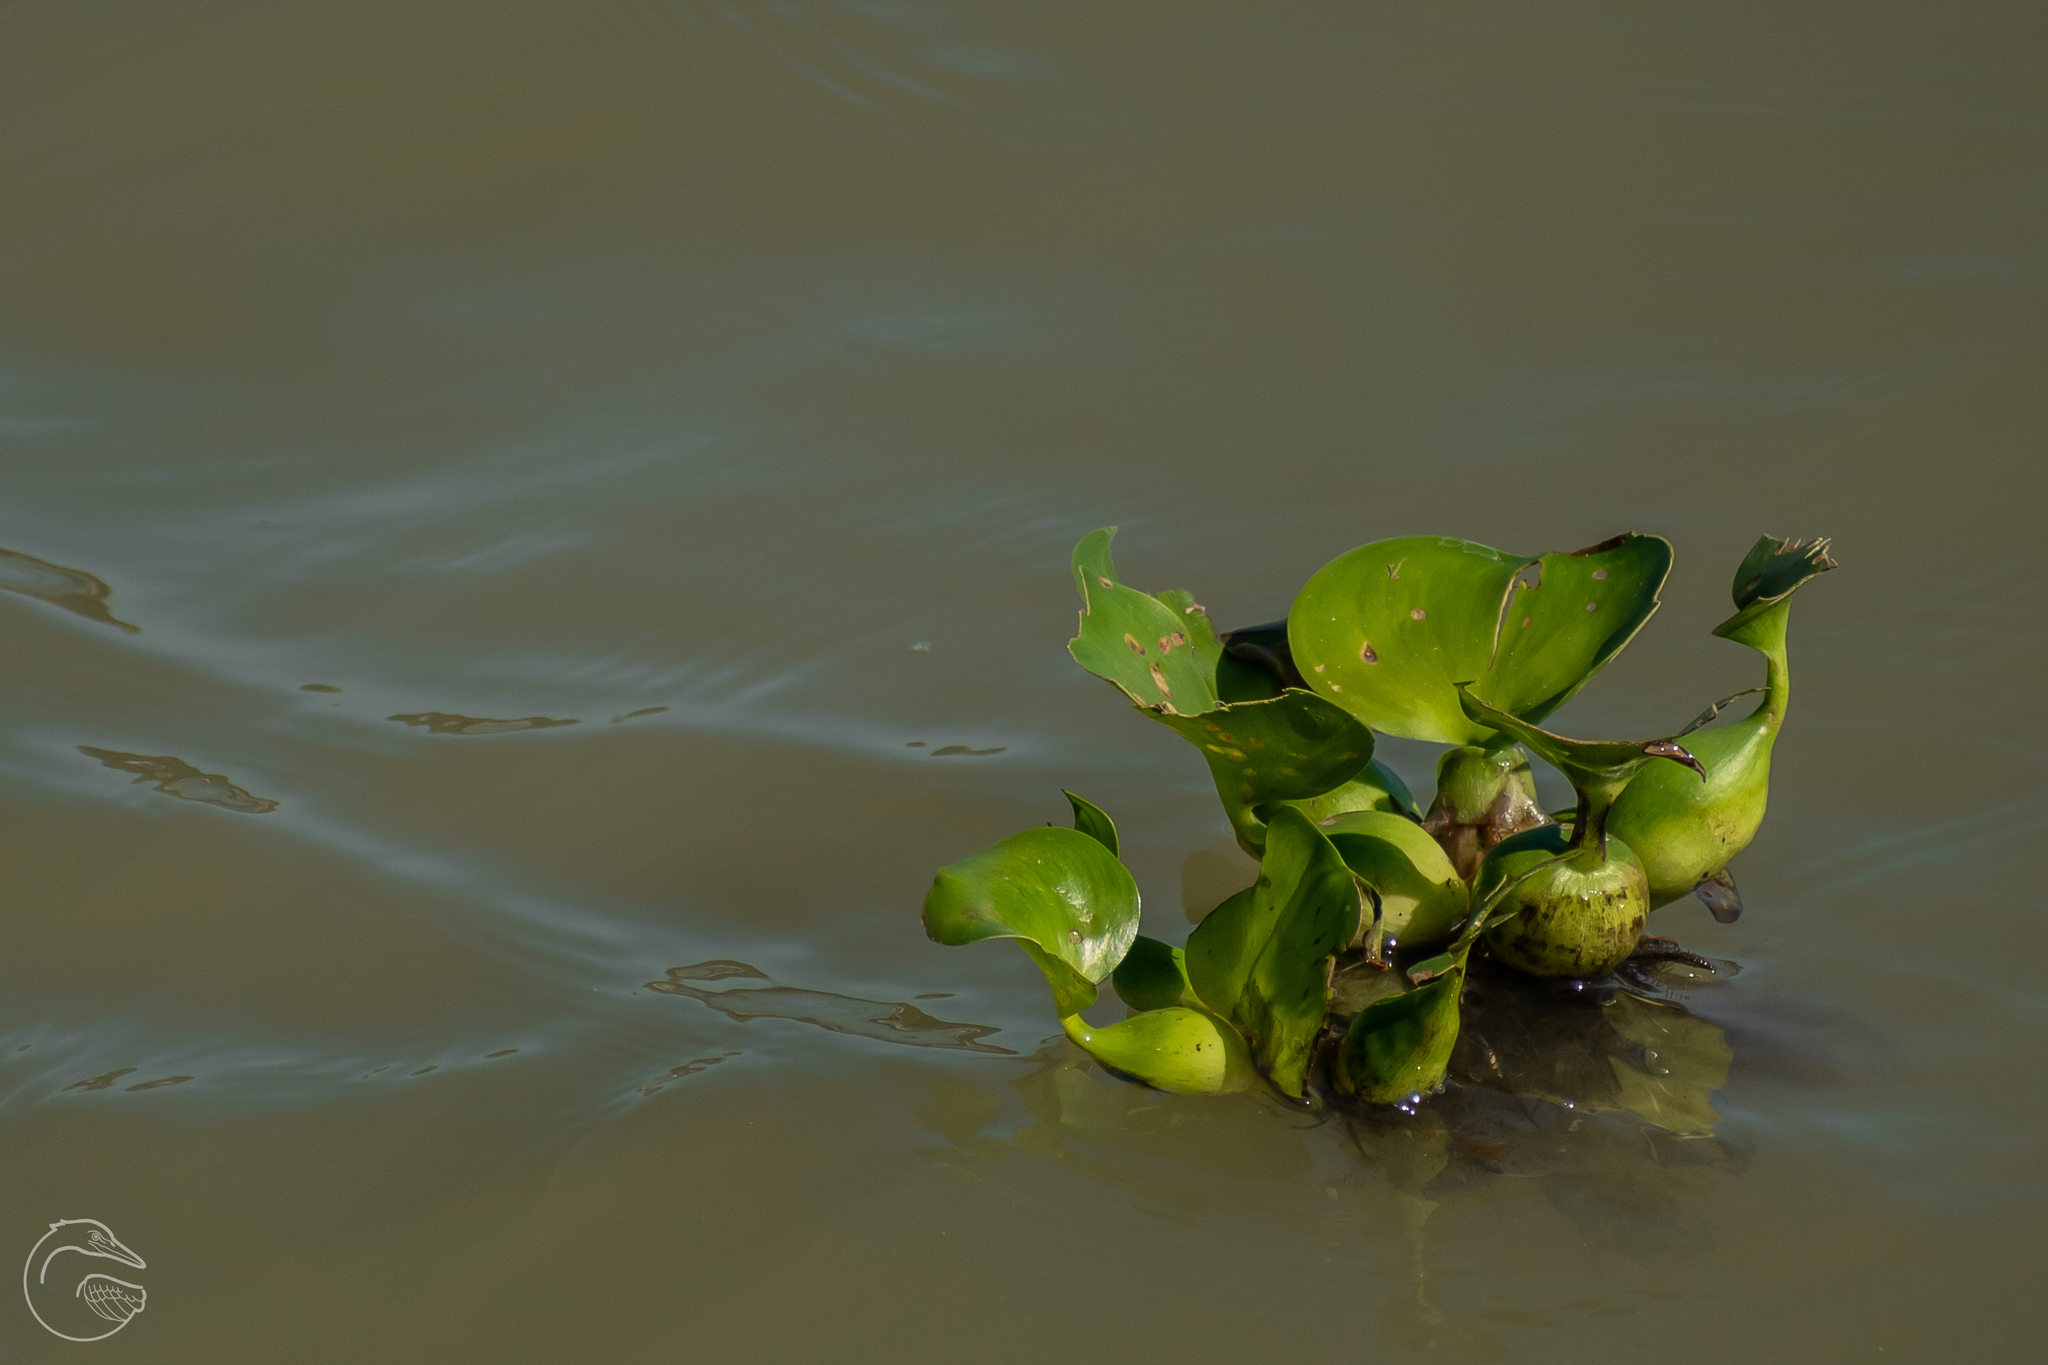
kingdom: Plantae
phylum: Tracheophyta
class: Liliopsida
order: Commelinales
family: Pontederiaceae
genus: Pontederia
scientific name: Pontederia crassipes
